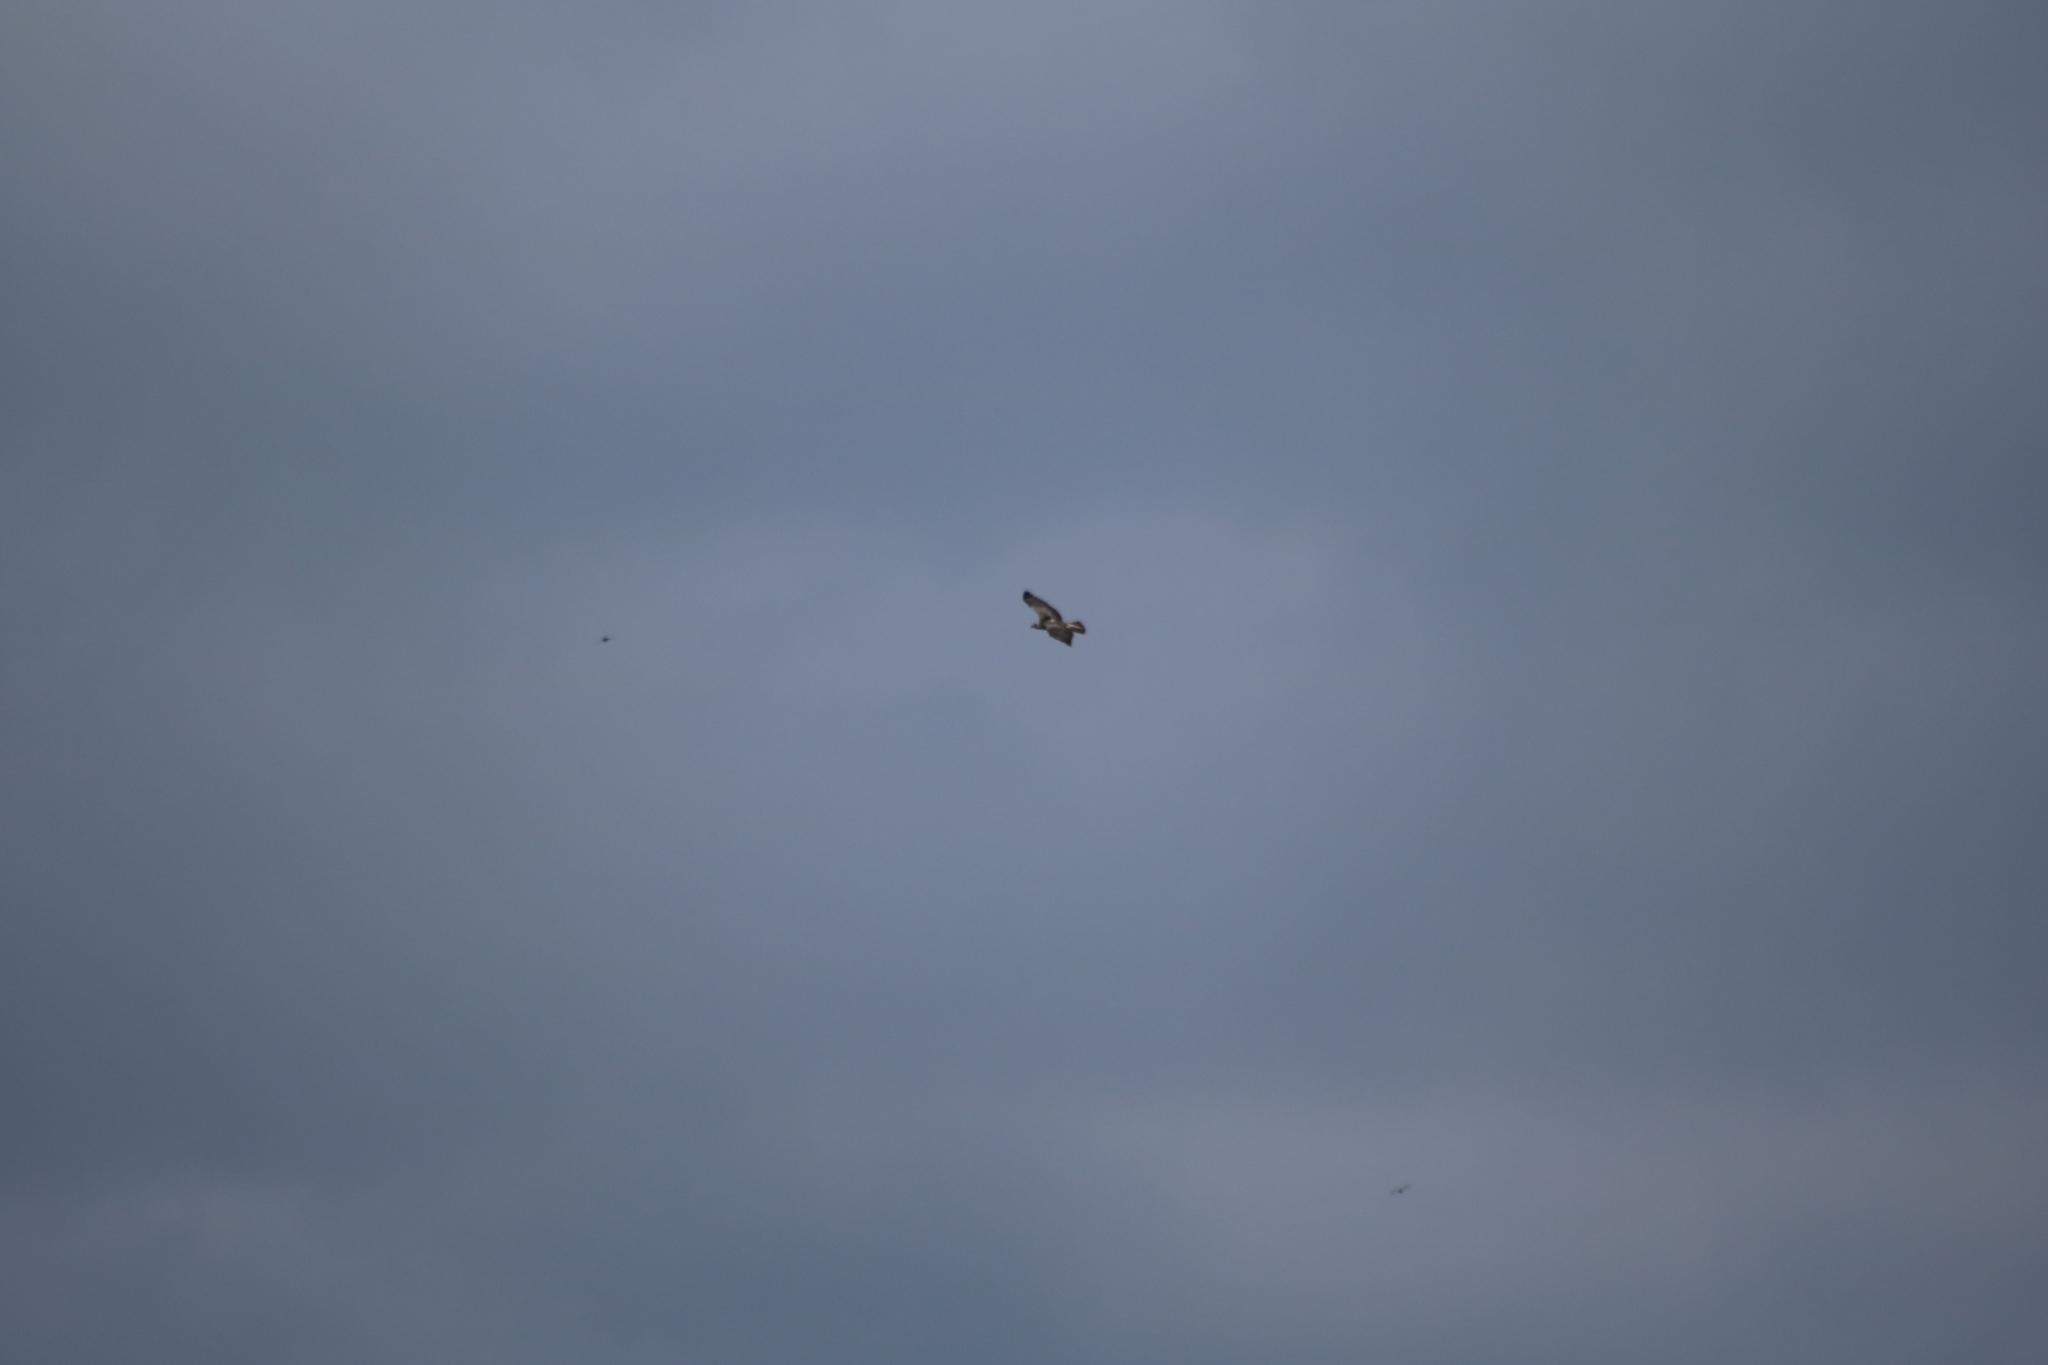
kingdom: Animalia
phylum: Chordata
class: Aves
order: Accipitriformes
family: Accipitridae
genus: Buteo
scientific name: Buteo buteo
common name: Common buzzard
